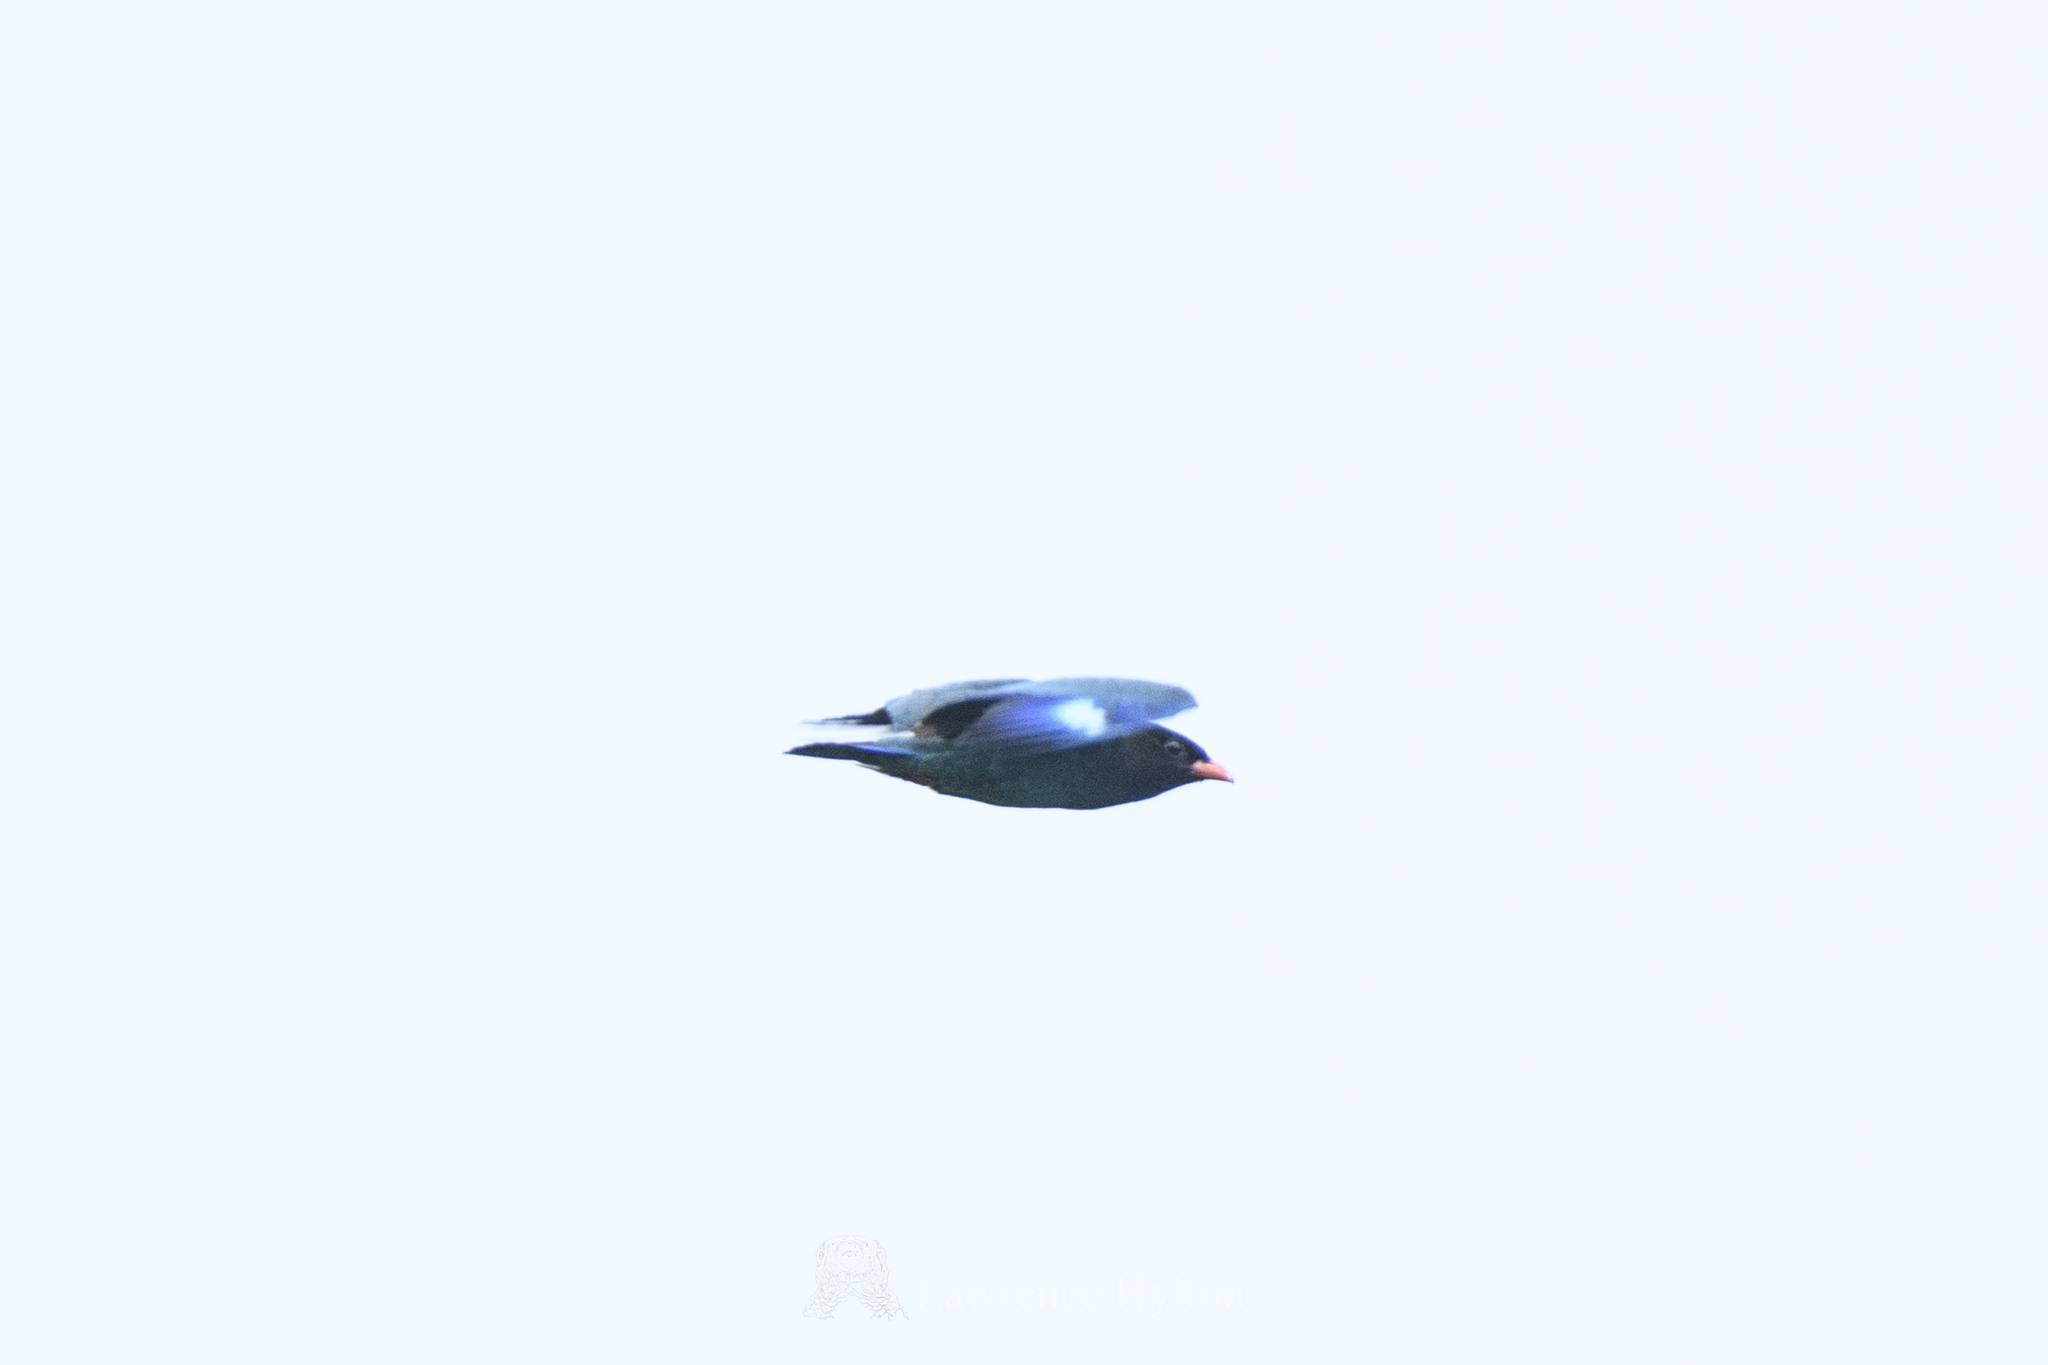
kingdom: Animalia
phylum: Chordata
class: Aves
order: Coraciiformes
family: Coraciidae
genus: Eurystomus
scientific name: Eurystomus orientalis
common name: Oriental dollarbird
